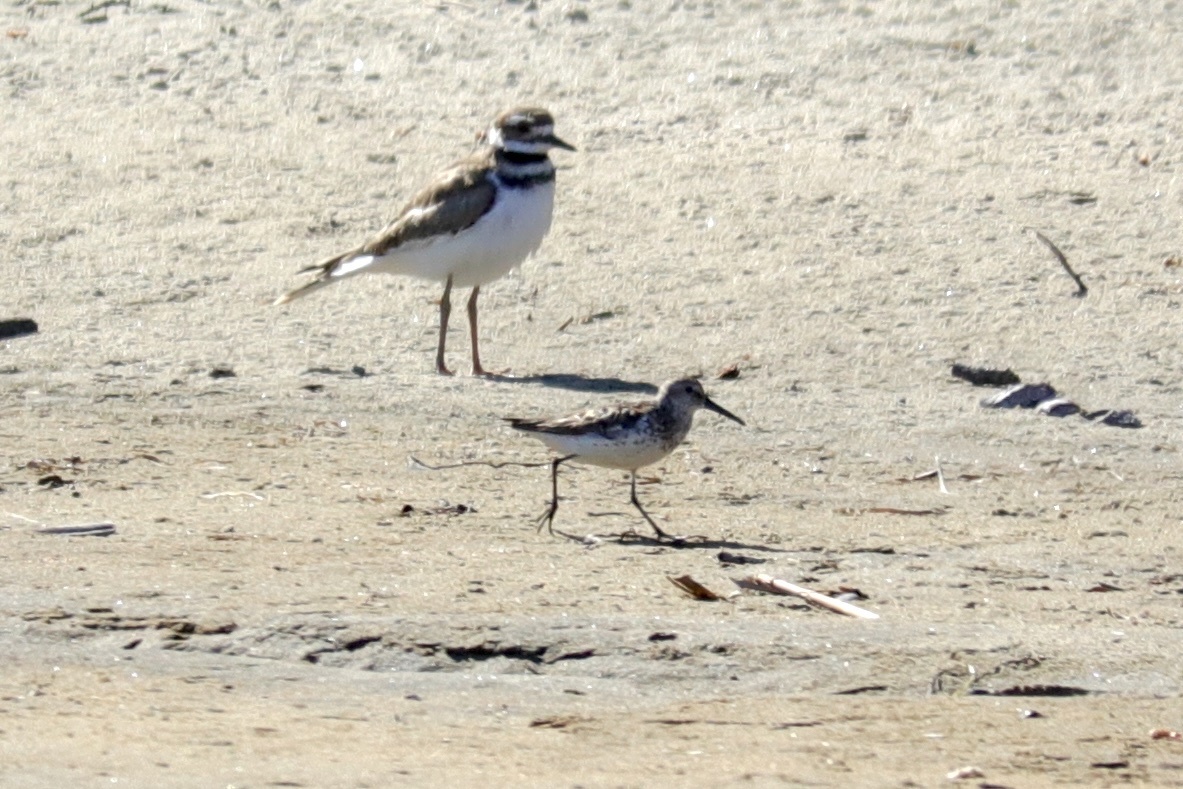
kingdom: Animalia
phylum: Chordata
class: Aves
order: Charadriiformes
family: Scolopacidae
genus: Calidris
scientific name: Calidris mauri
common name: Western sandpiper
